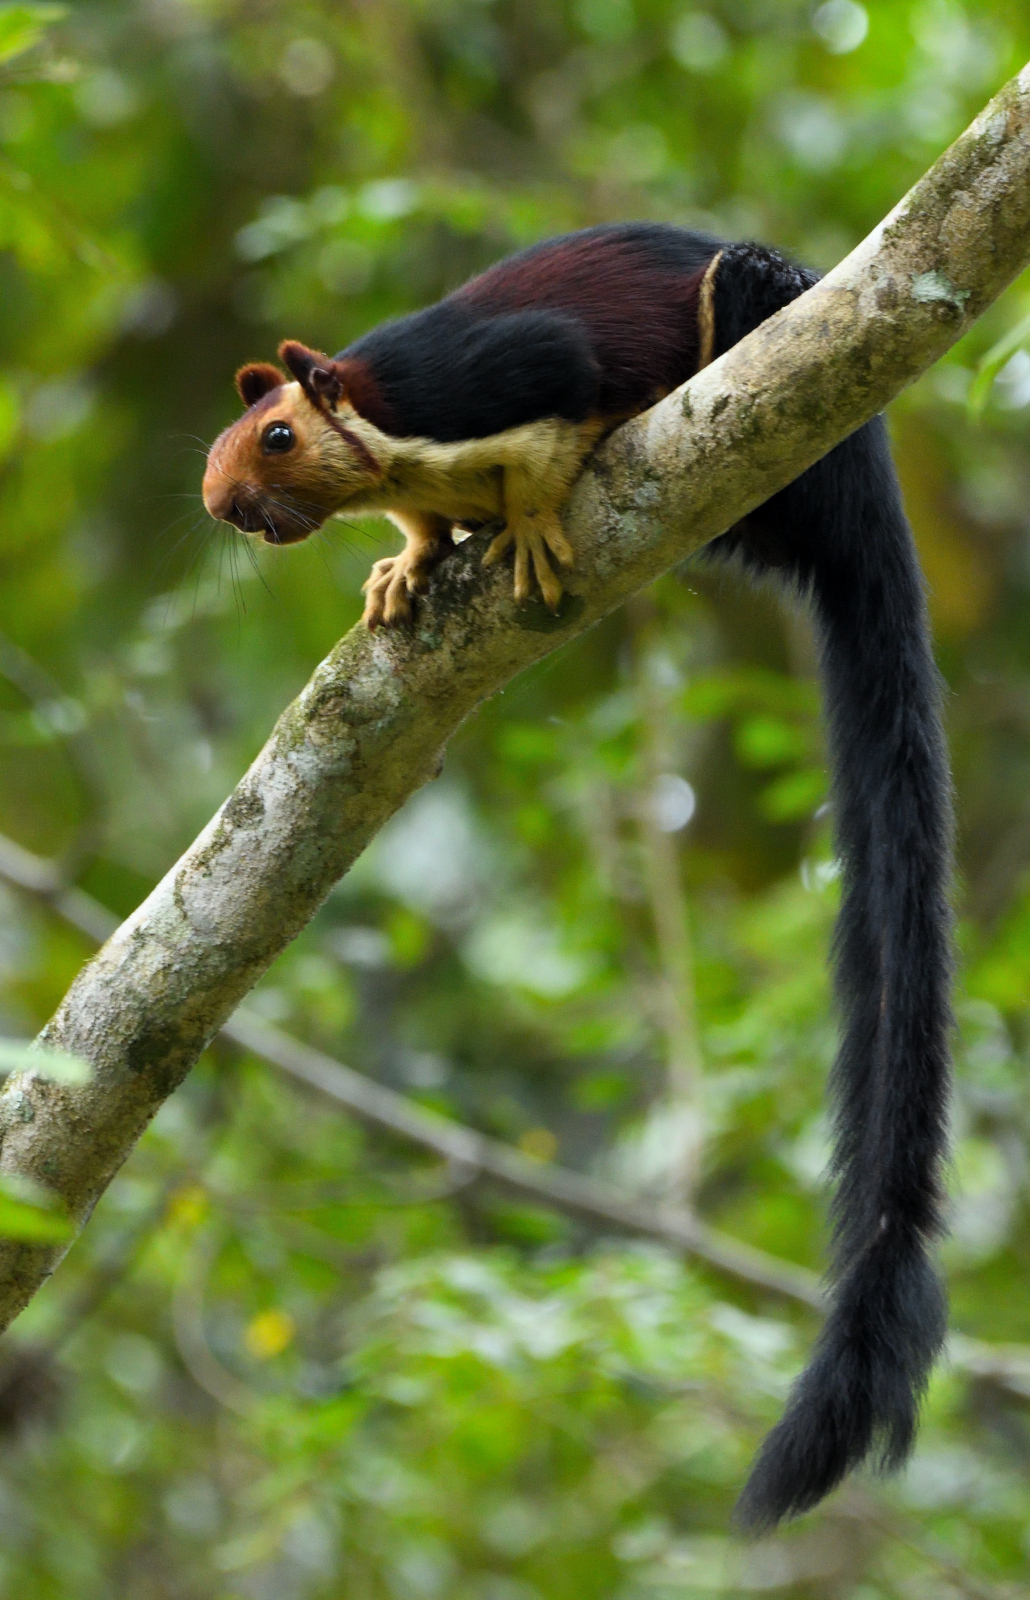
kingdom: Animalia
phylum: Chordata
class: Mammalia
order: Rodentia
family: Sciuridae
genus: Ratufa
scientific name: Ratufa indica
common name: Indian giant squirrel
